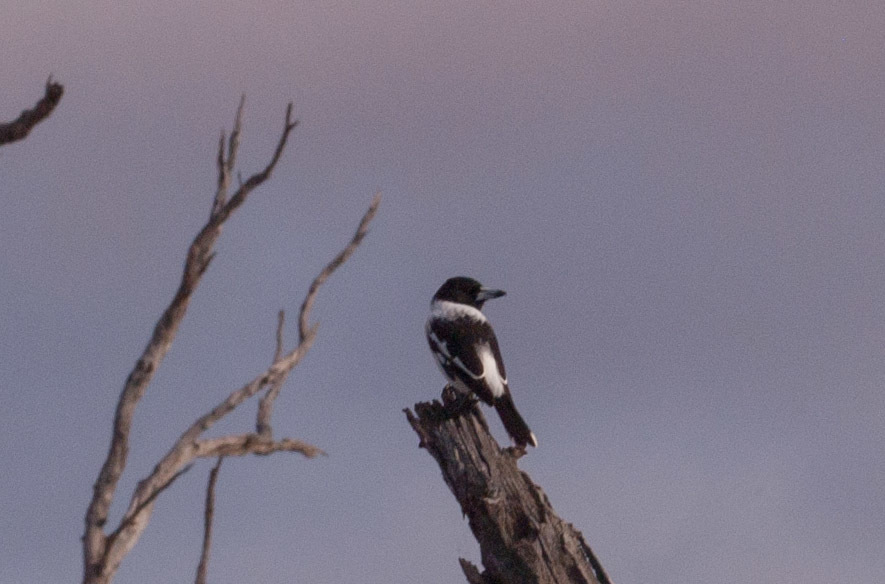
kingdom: Animalia
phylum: Chordata
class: Aves
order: Passeriformes
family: Cracticidae
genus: Cracticus
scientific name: Cracticus nigrogularis
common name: Pied butcherbird
